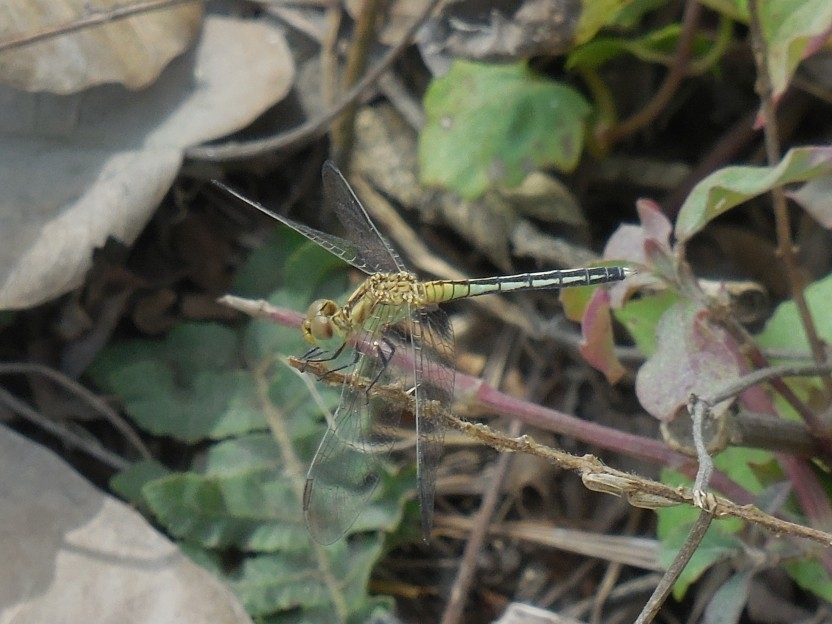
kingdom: Animalia
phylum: Arthropoda
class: Insecta
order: Odonata
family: Libellulidae
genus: Diplacodes
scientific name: Diplacodes trivialis
